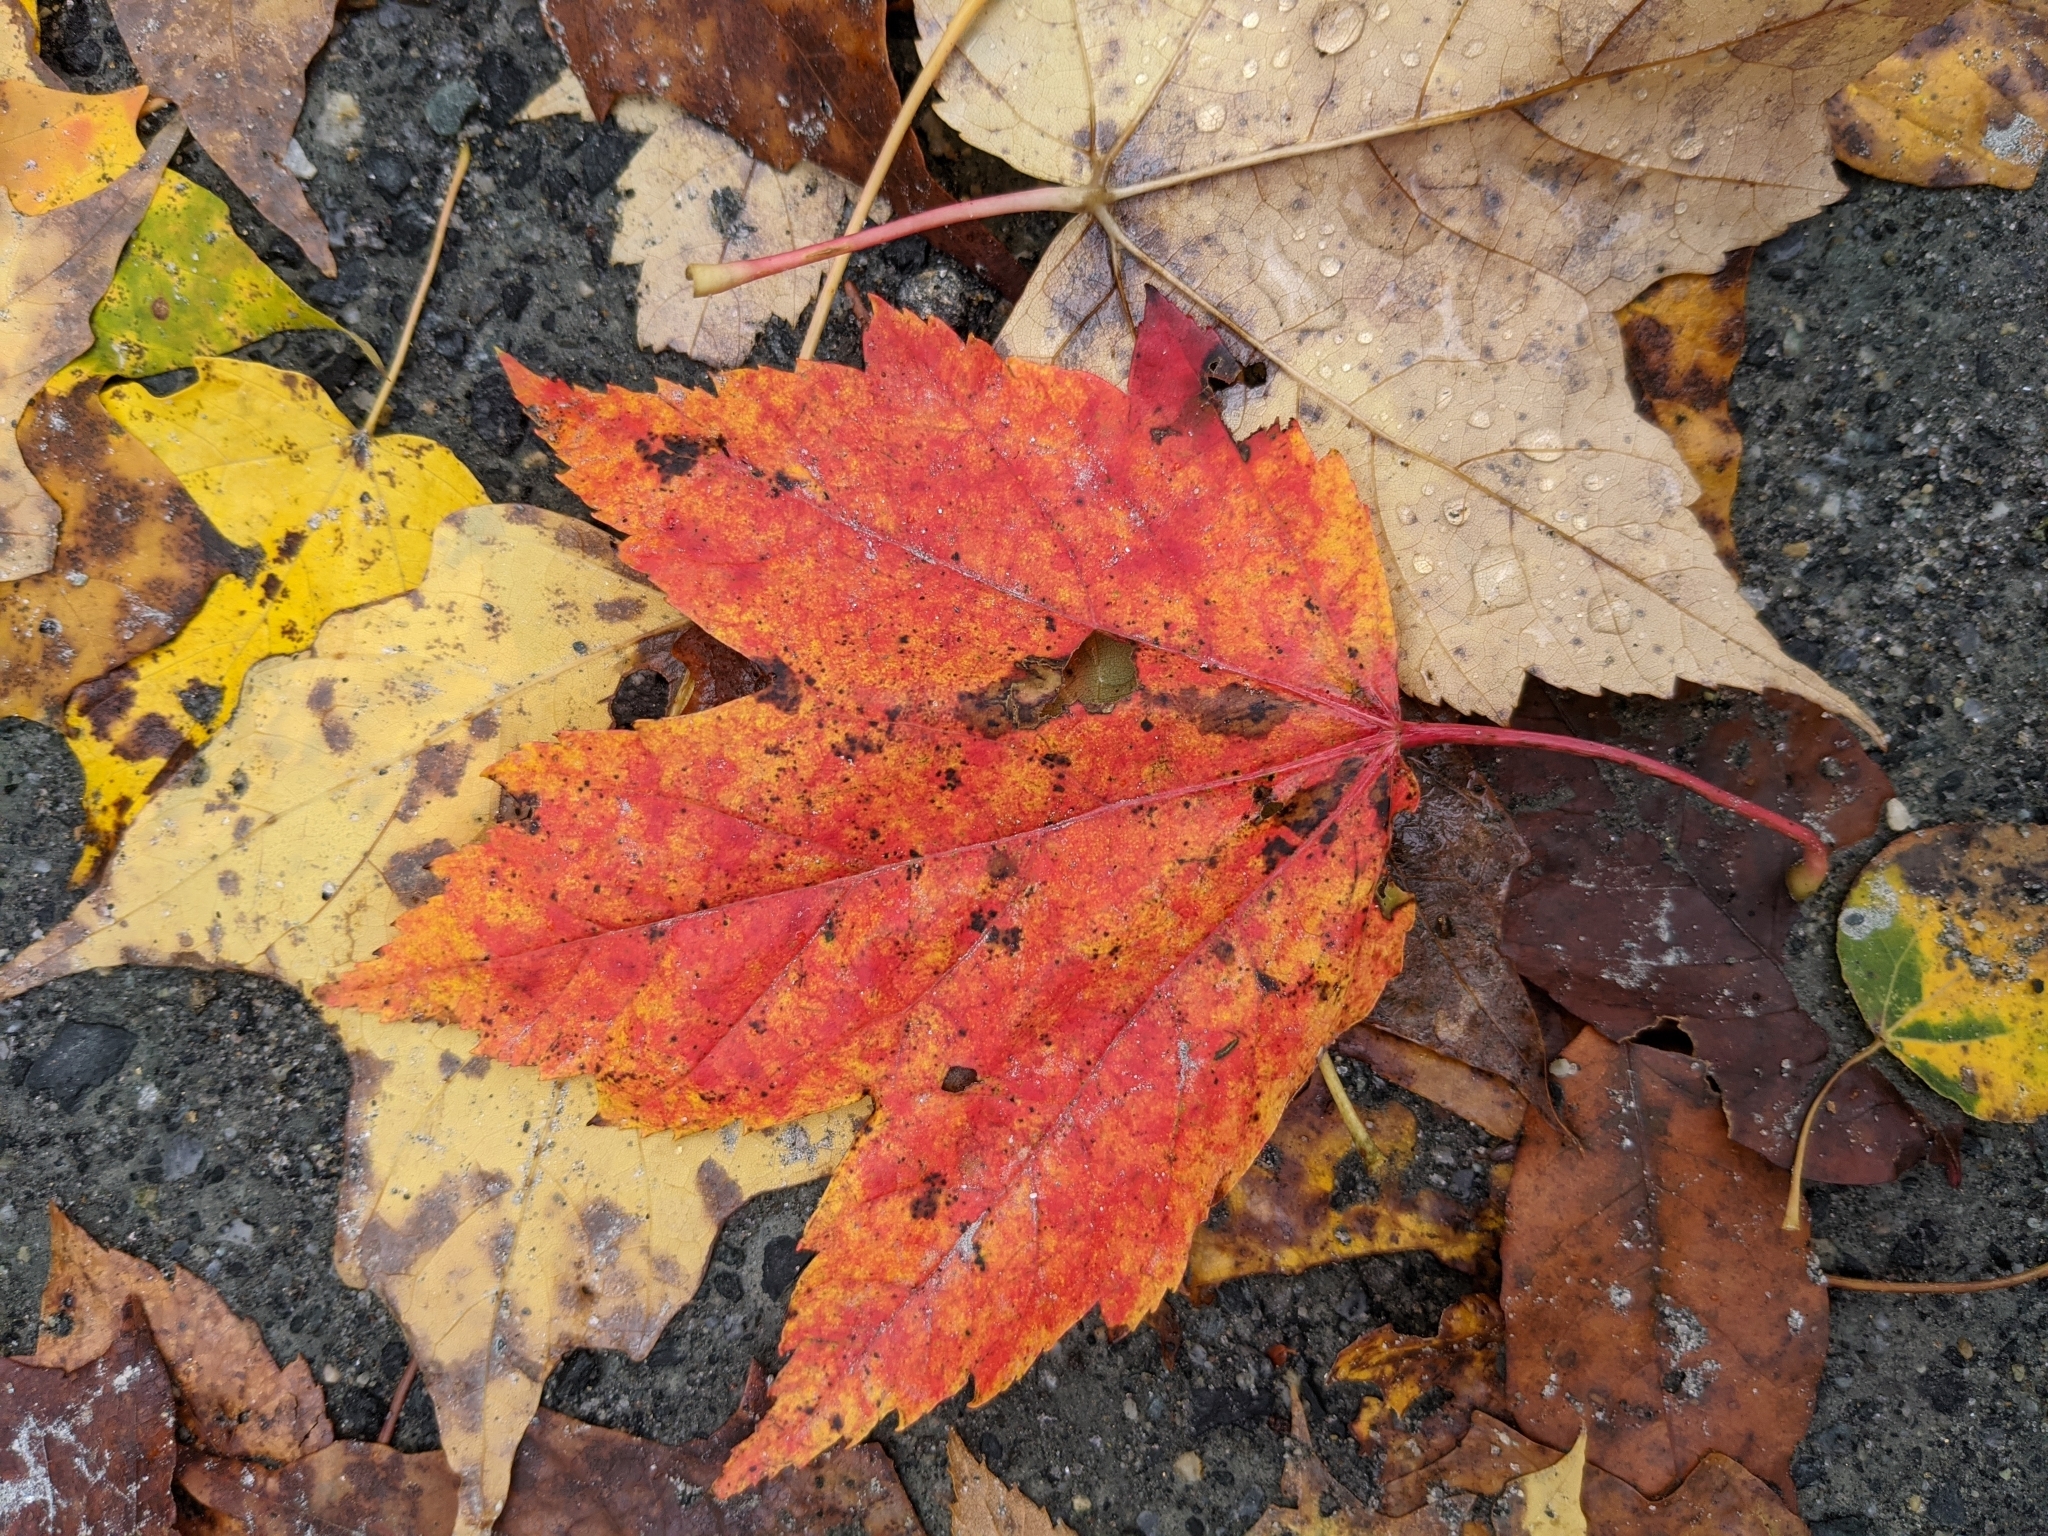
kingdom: Plantae
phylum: Tracheophyta
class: Magnoliopsida
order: Sapindales
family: Sapindaceae
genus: Acer
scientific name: Acer rubrum
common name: Red maple
